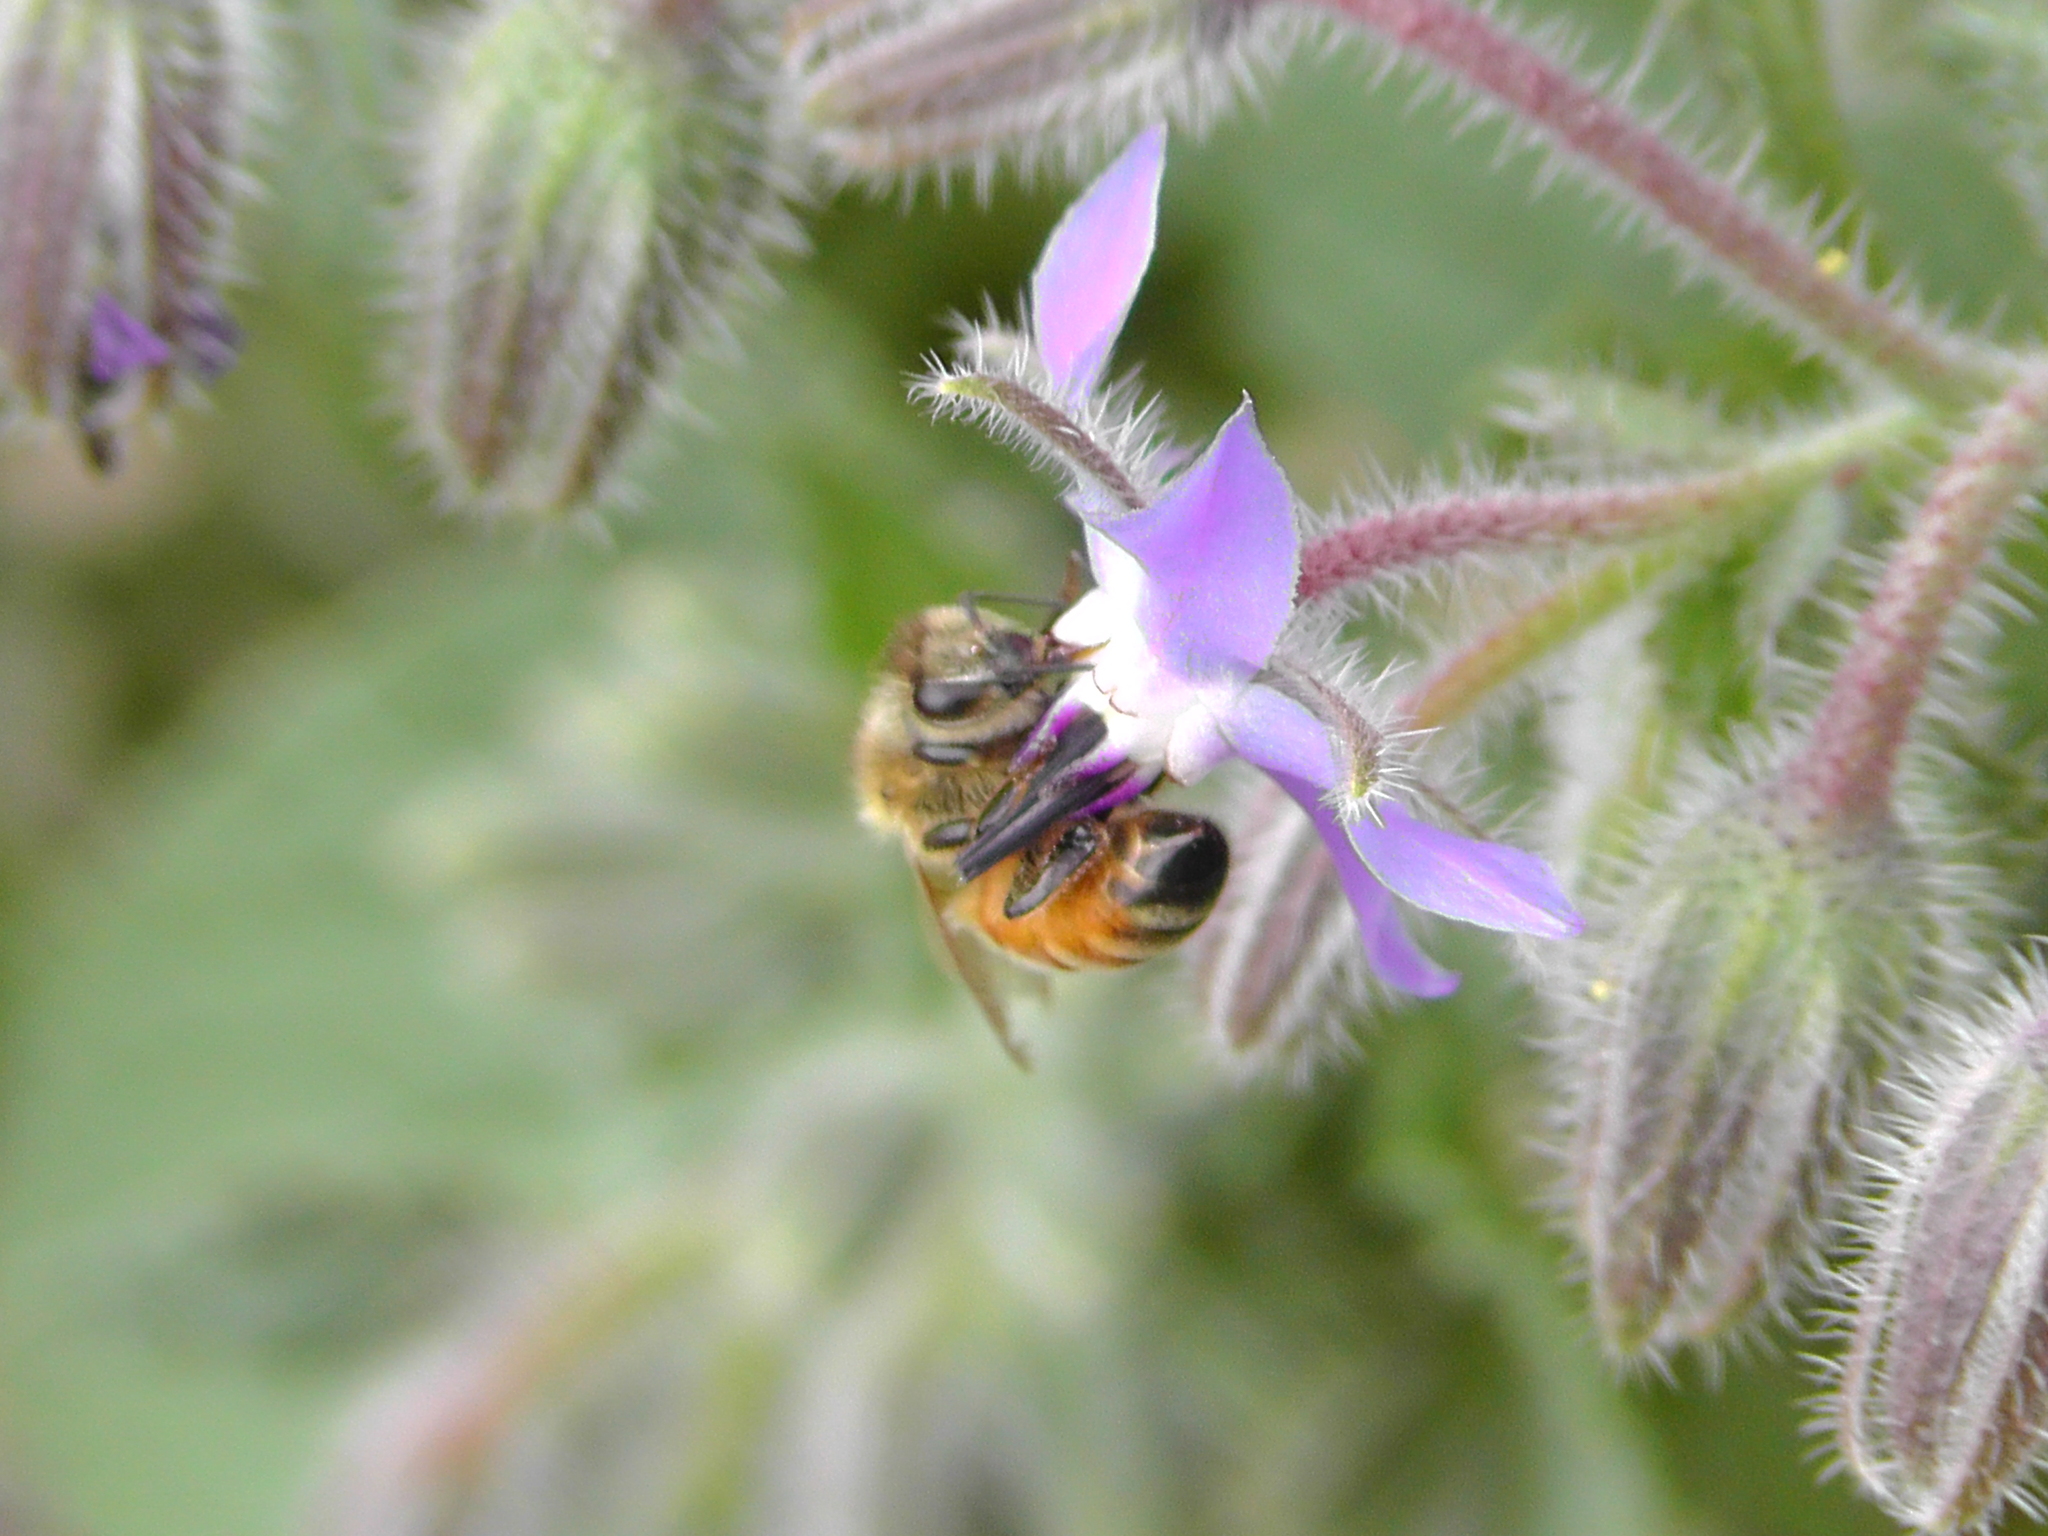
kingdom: Animalia
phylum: Arthropoda
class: Insecta
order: Hymenoptera
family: Apidae
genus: Apis
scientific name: Apis mellifera
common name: Honey bee
